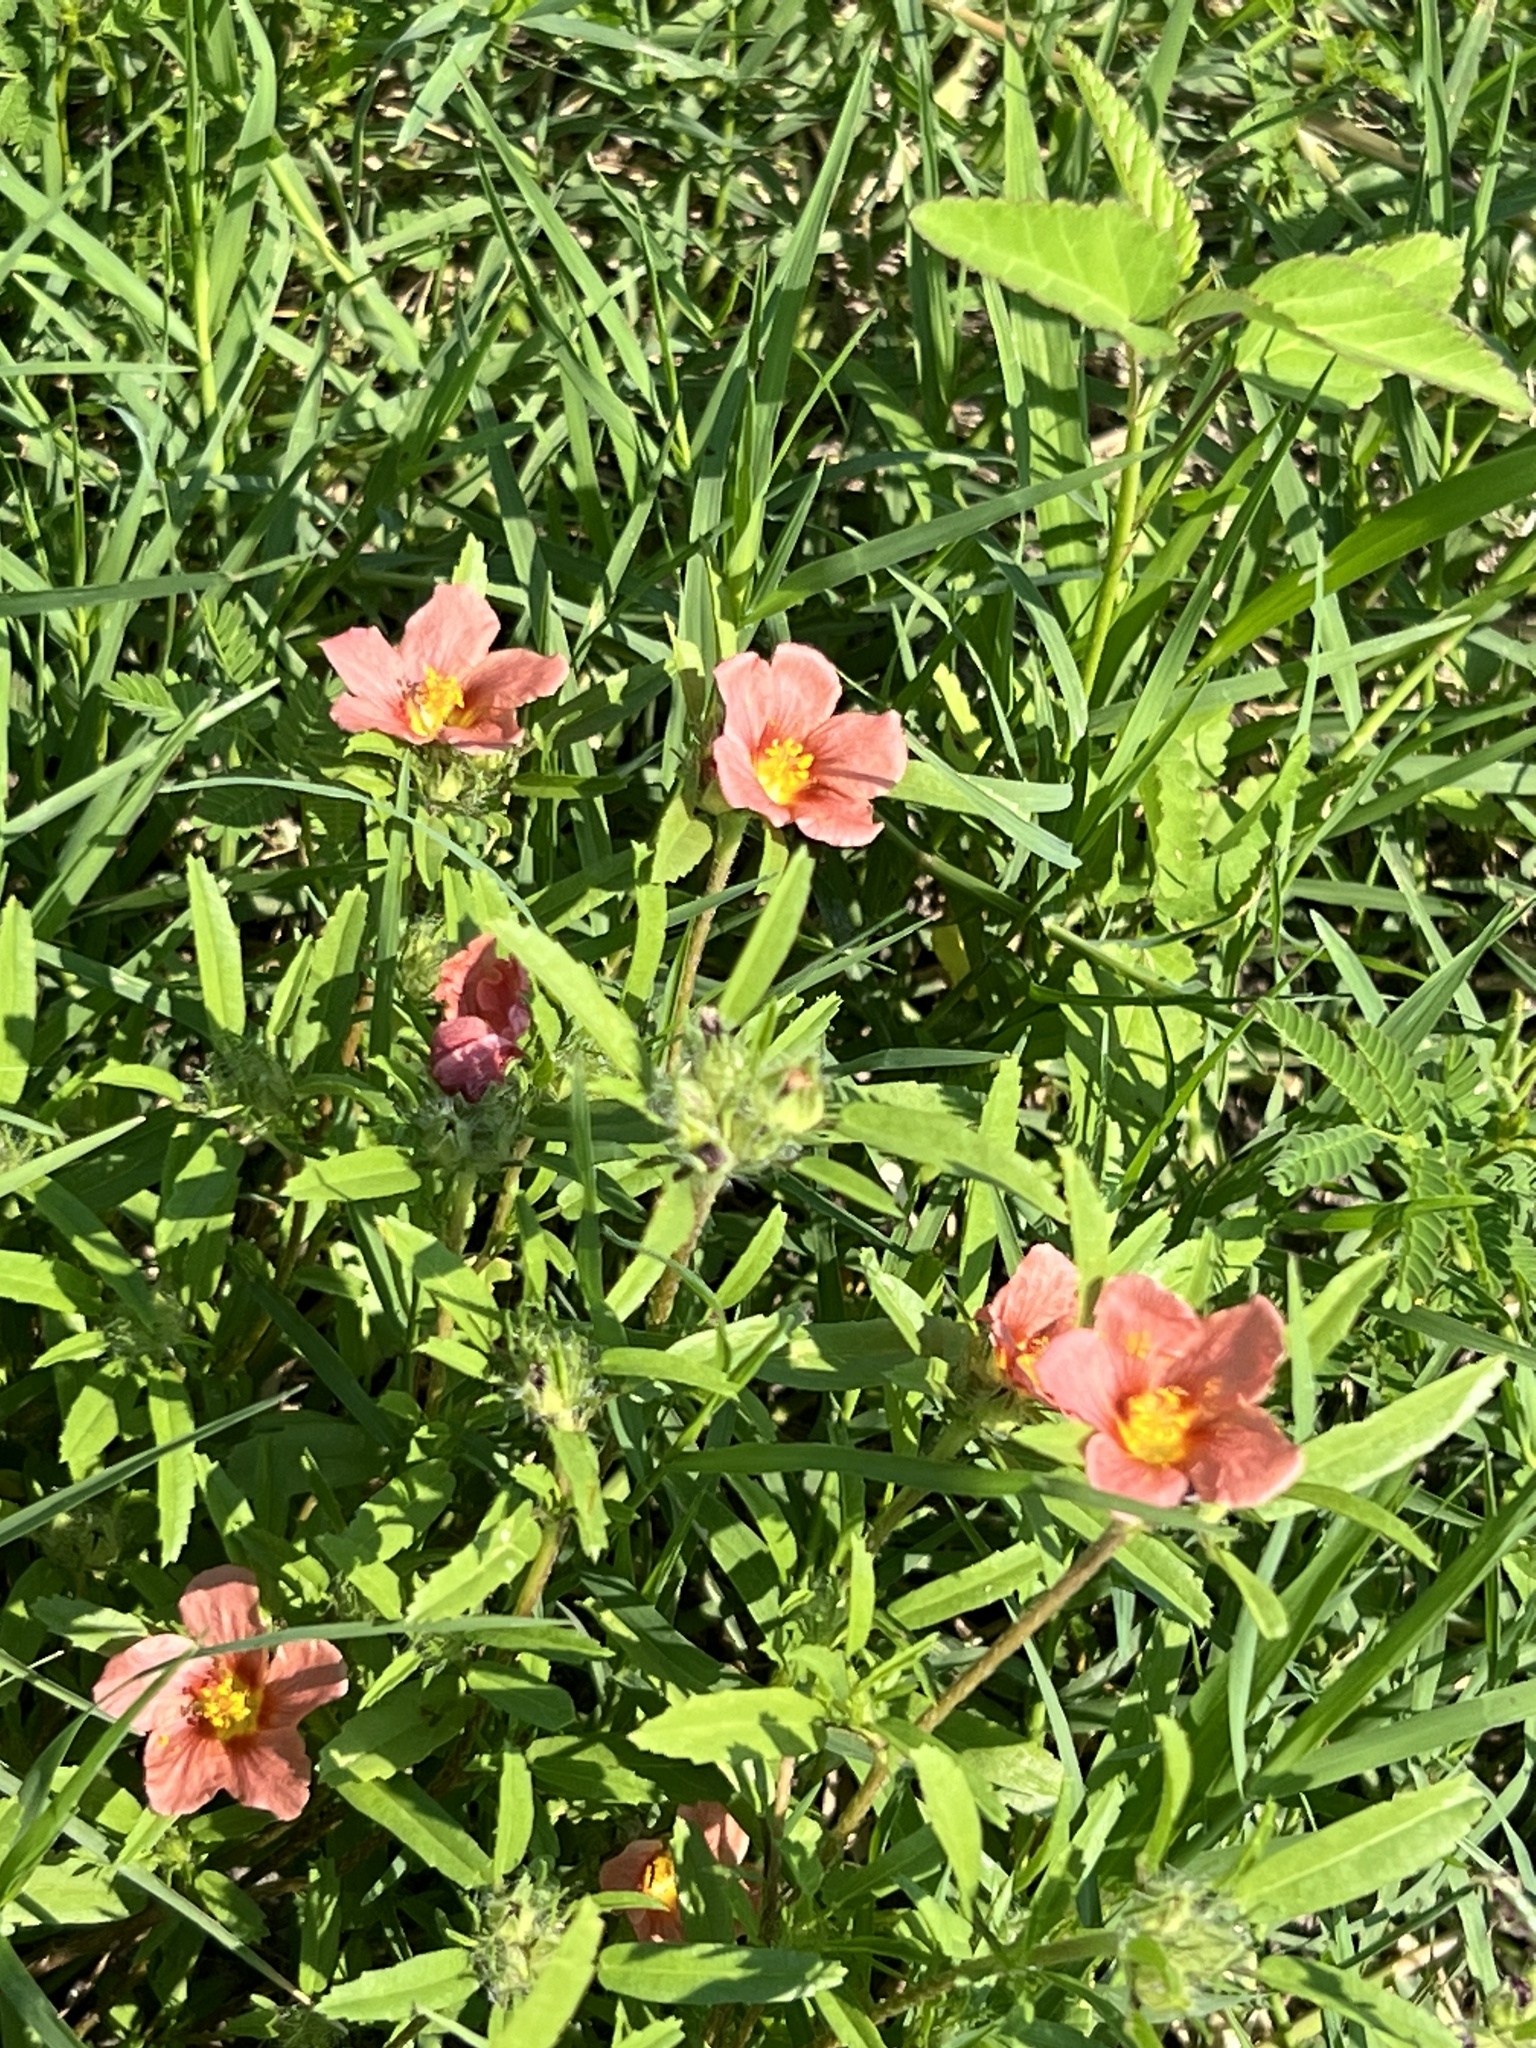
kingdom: Plantae
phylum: Tracheophyta
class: Magnoliopsida
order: Malvales
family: Malvaceae
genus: Sida
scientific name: Sida ciliaris
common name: Bracted fanpetals
